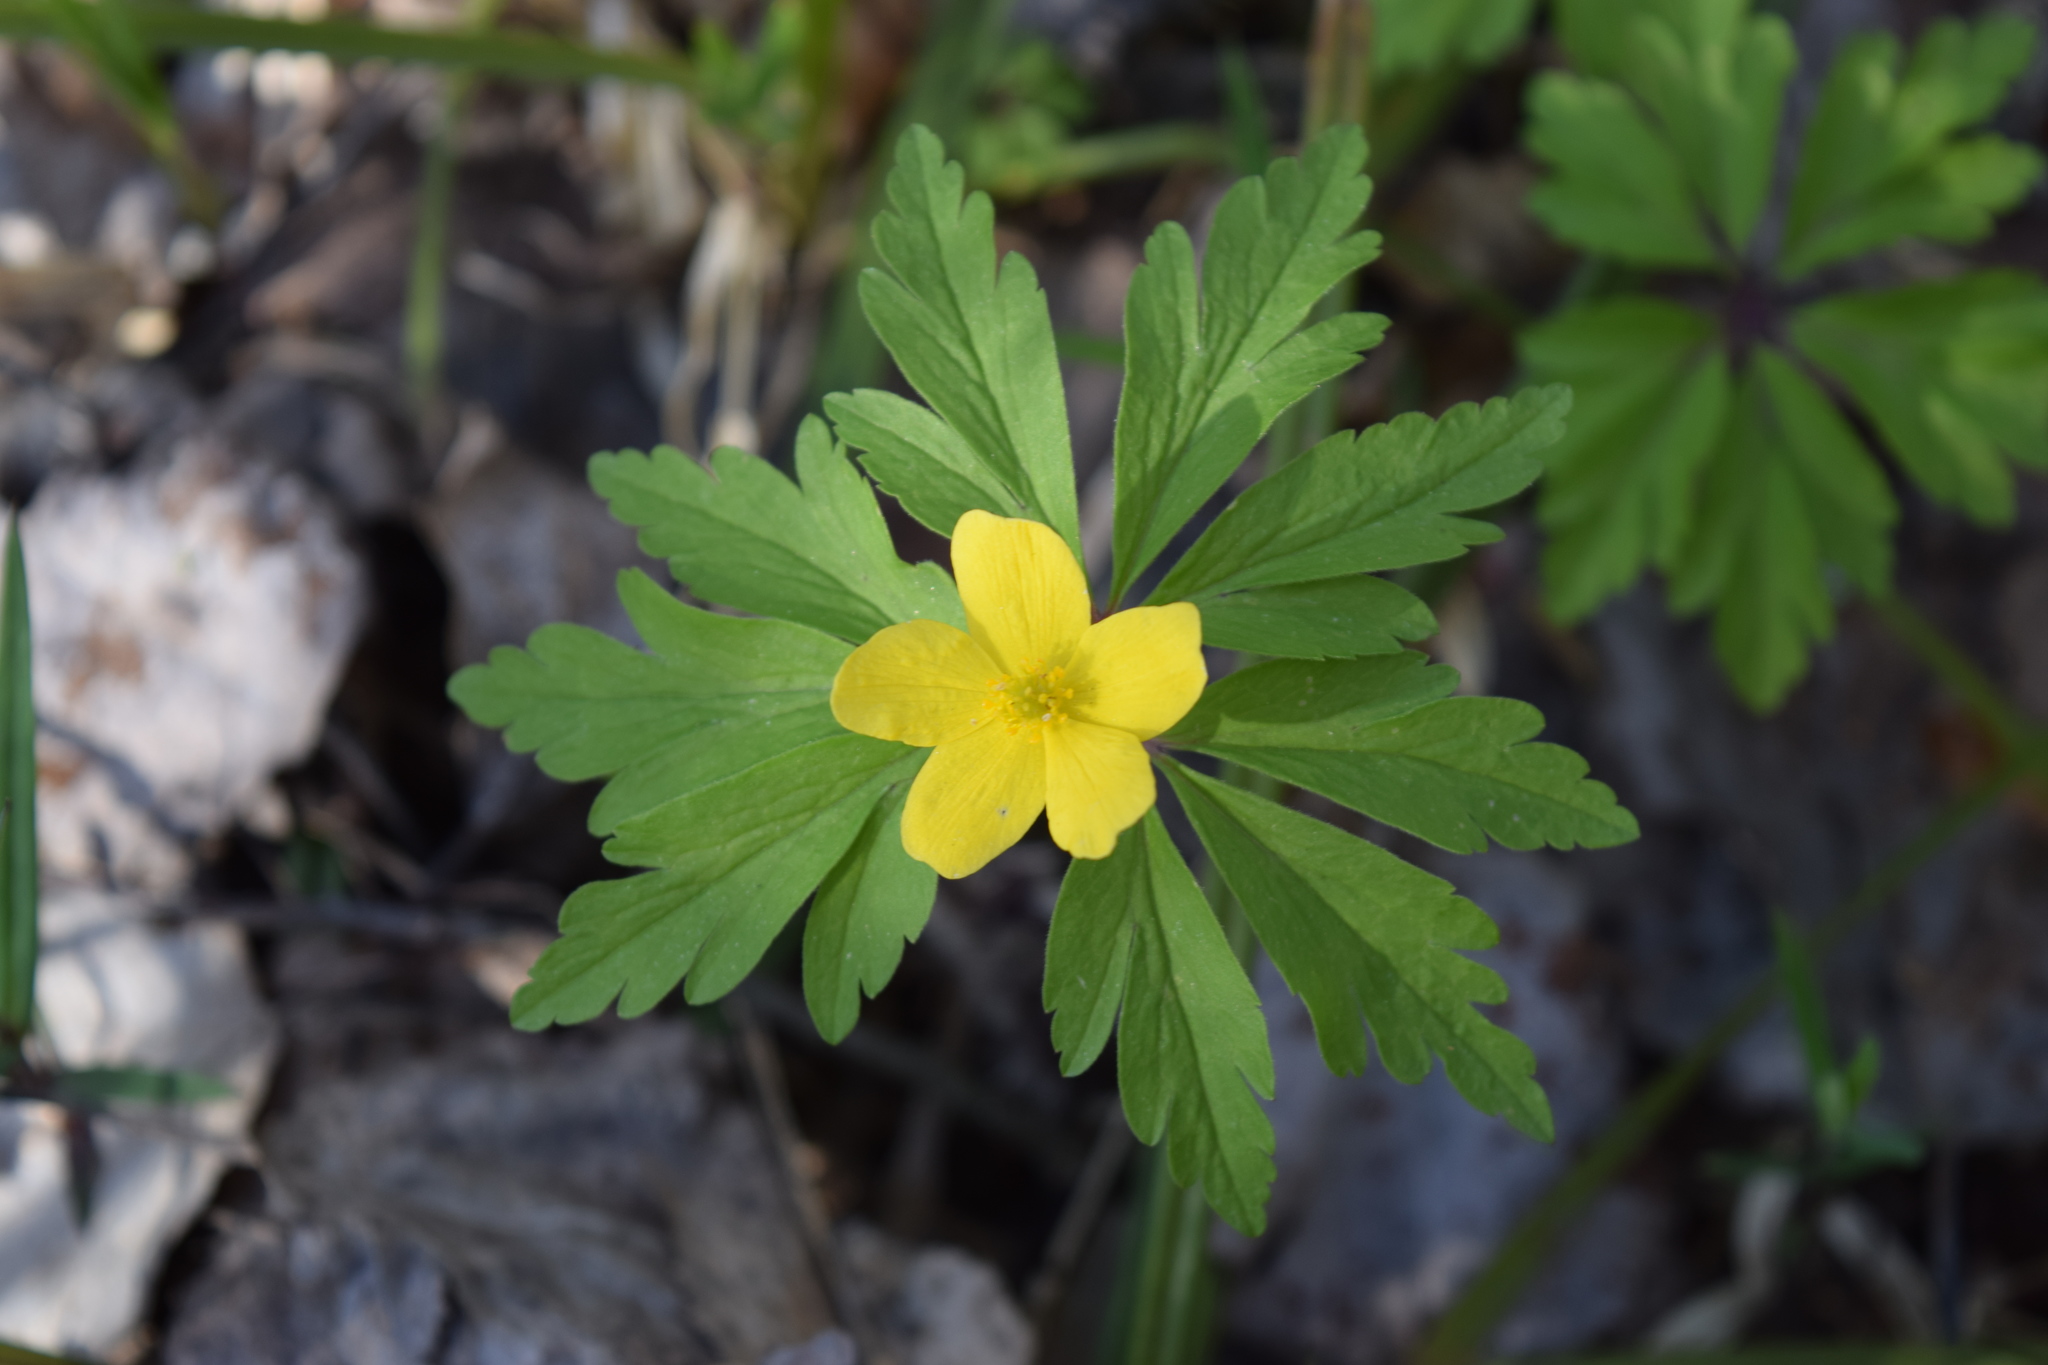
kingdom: Plantae
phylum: Tracheophyta
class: Magnoliopsida
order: Ranunculales
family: Ranunculaceae
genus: Anemone
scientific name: Anemone ranunculoides
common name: Yellow anemone
